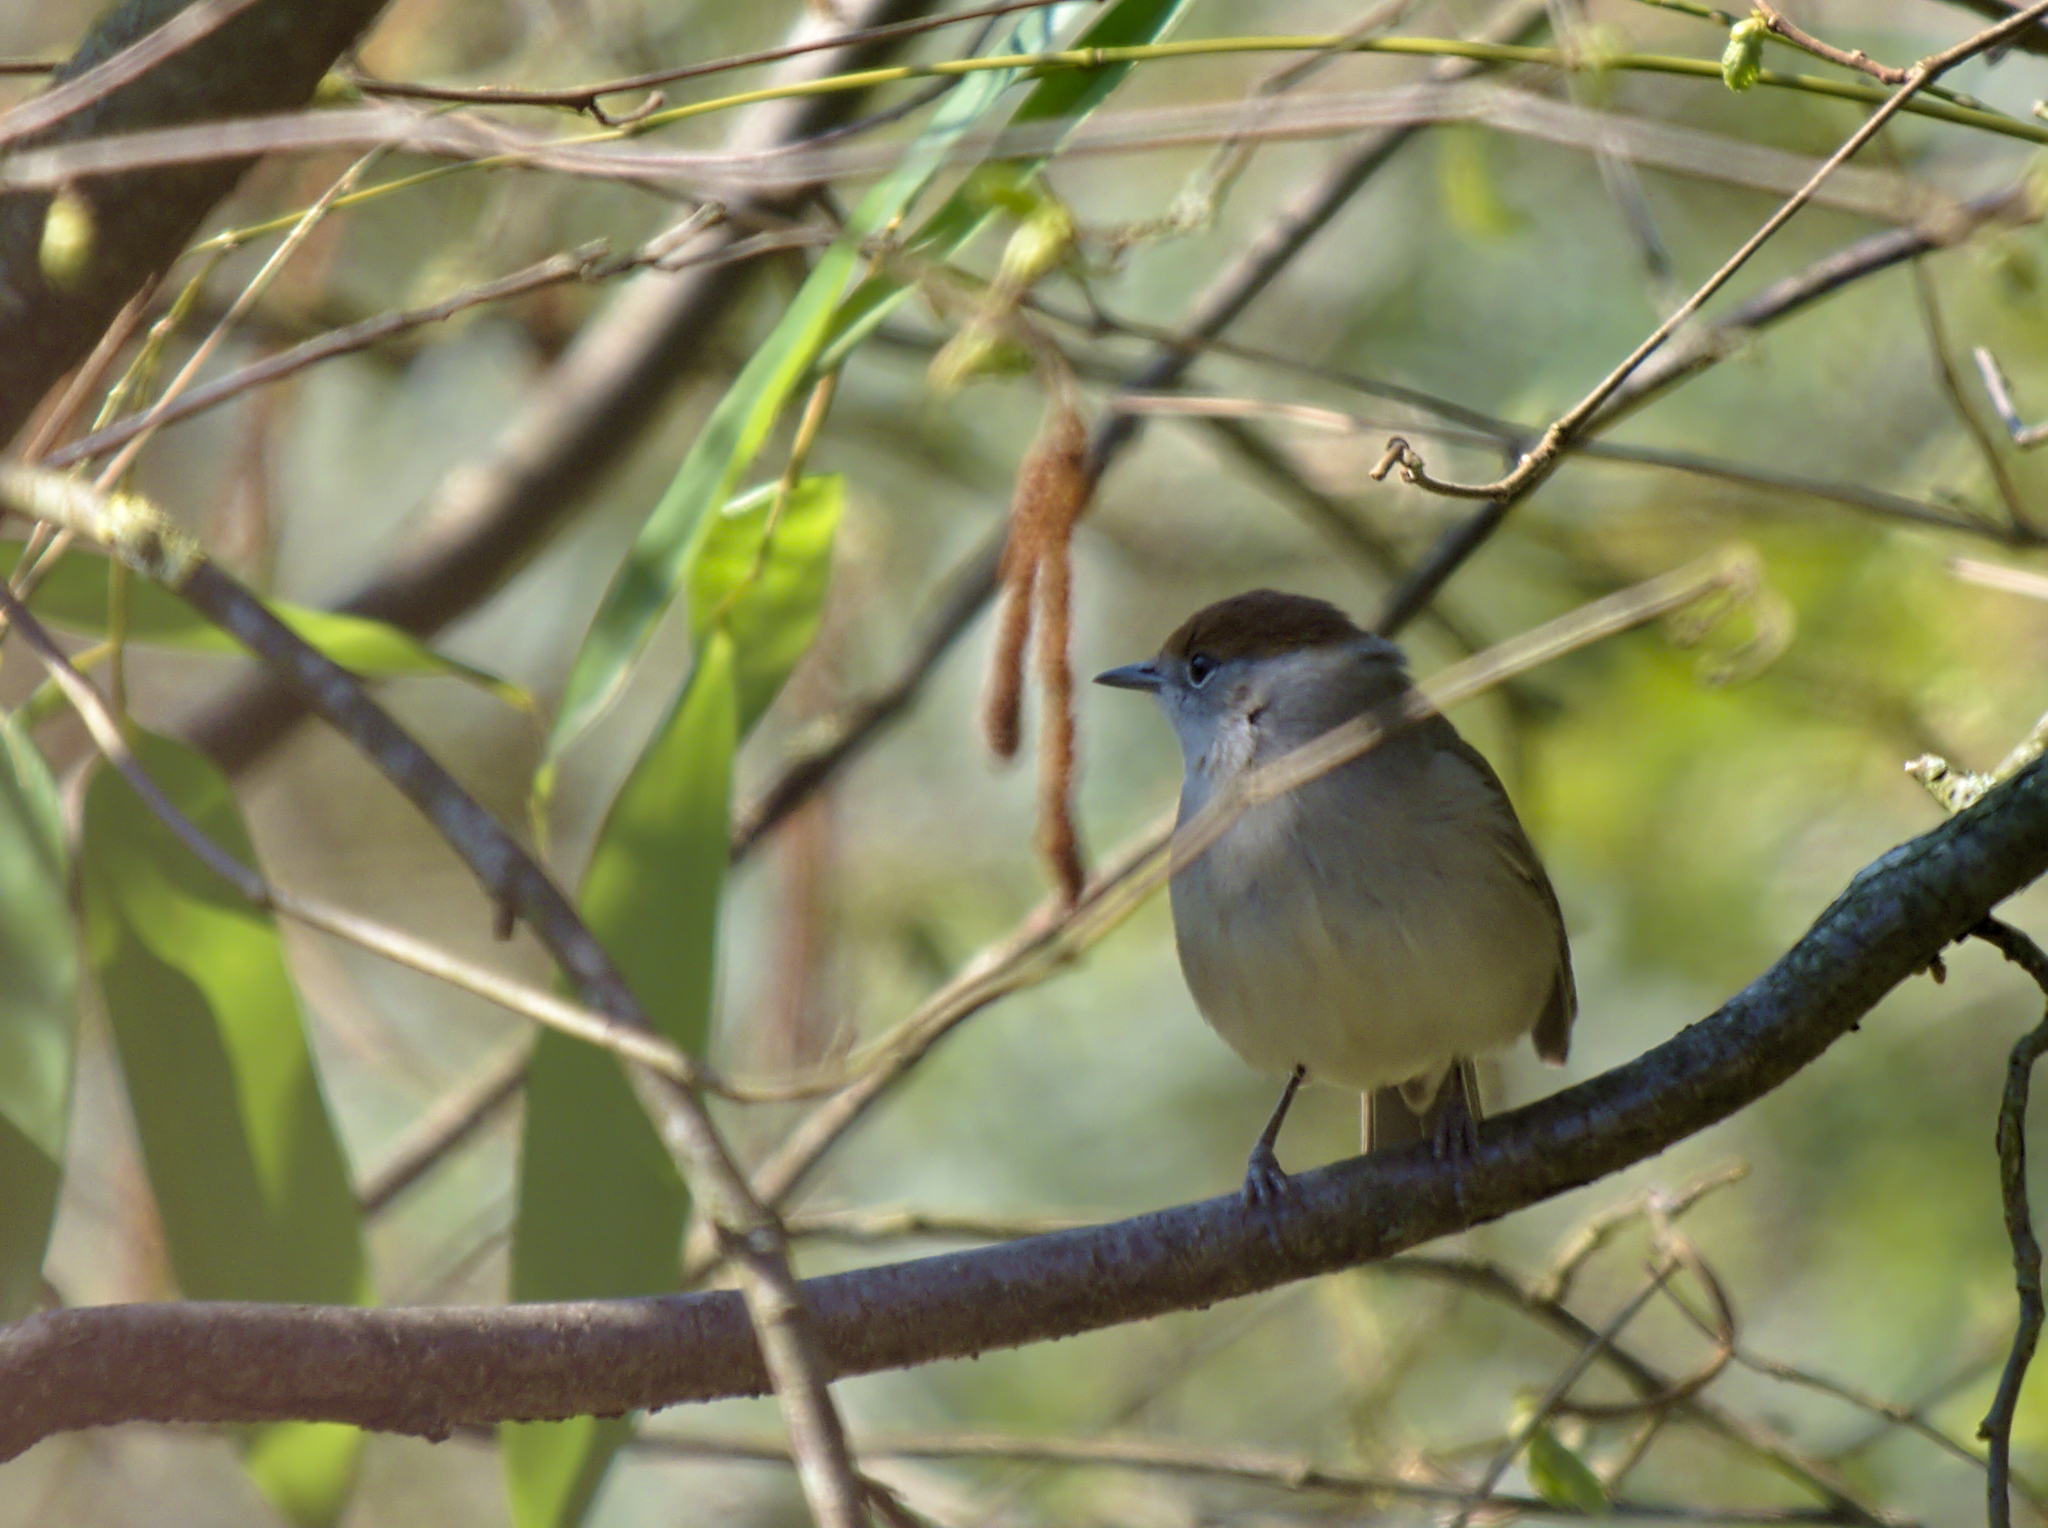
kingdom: Animalia
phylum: Chordata
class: Aves
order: Passeriformes
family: Sylviidae
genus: Sylvia
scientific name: Sylvia atricapilla
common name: Eurasian blackcap
